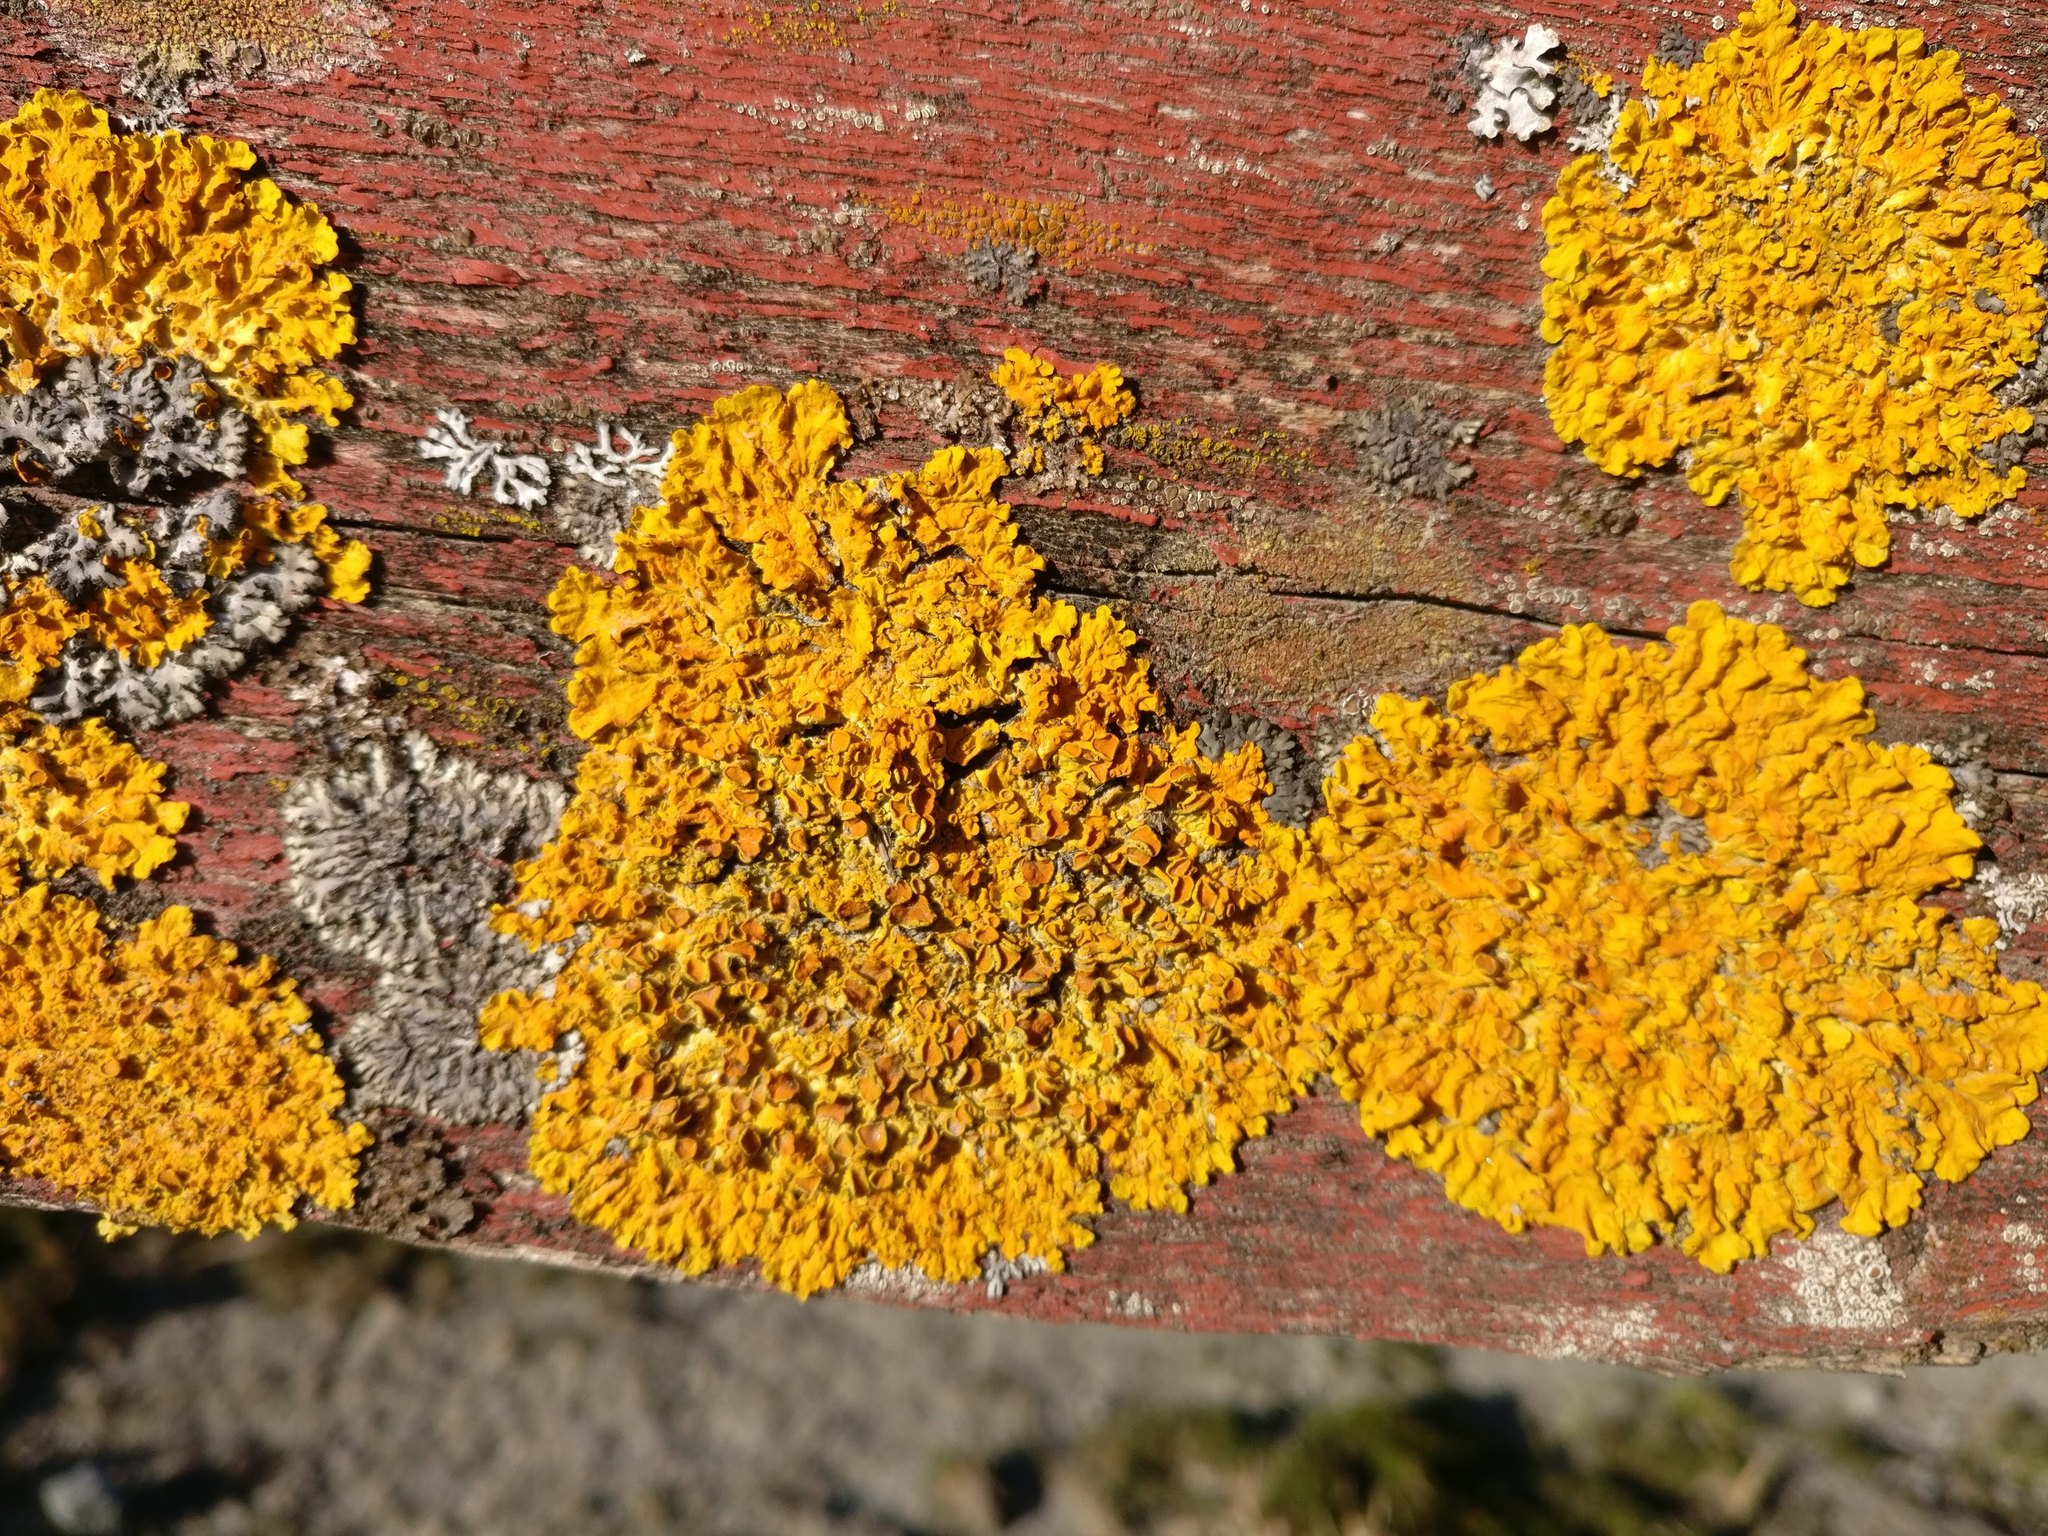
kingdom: Fungi
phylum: Ascomycota
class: Lecanoromycetes
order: Teloschistales
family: Teloschistaceae
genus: Xanthoria
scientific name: Xanthoria parietina
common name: Common orange lichen
